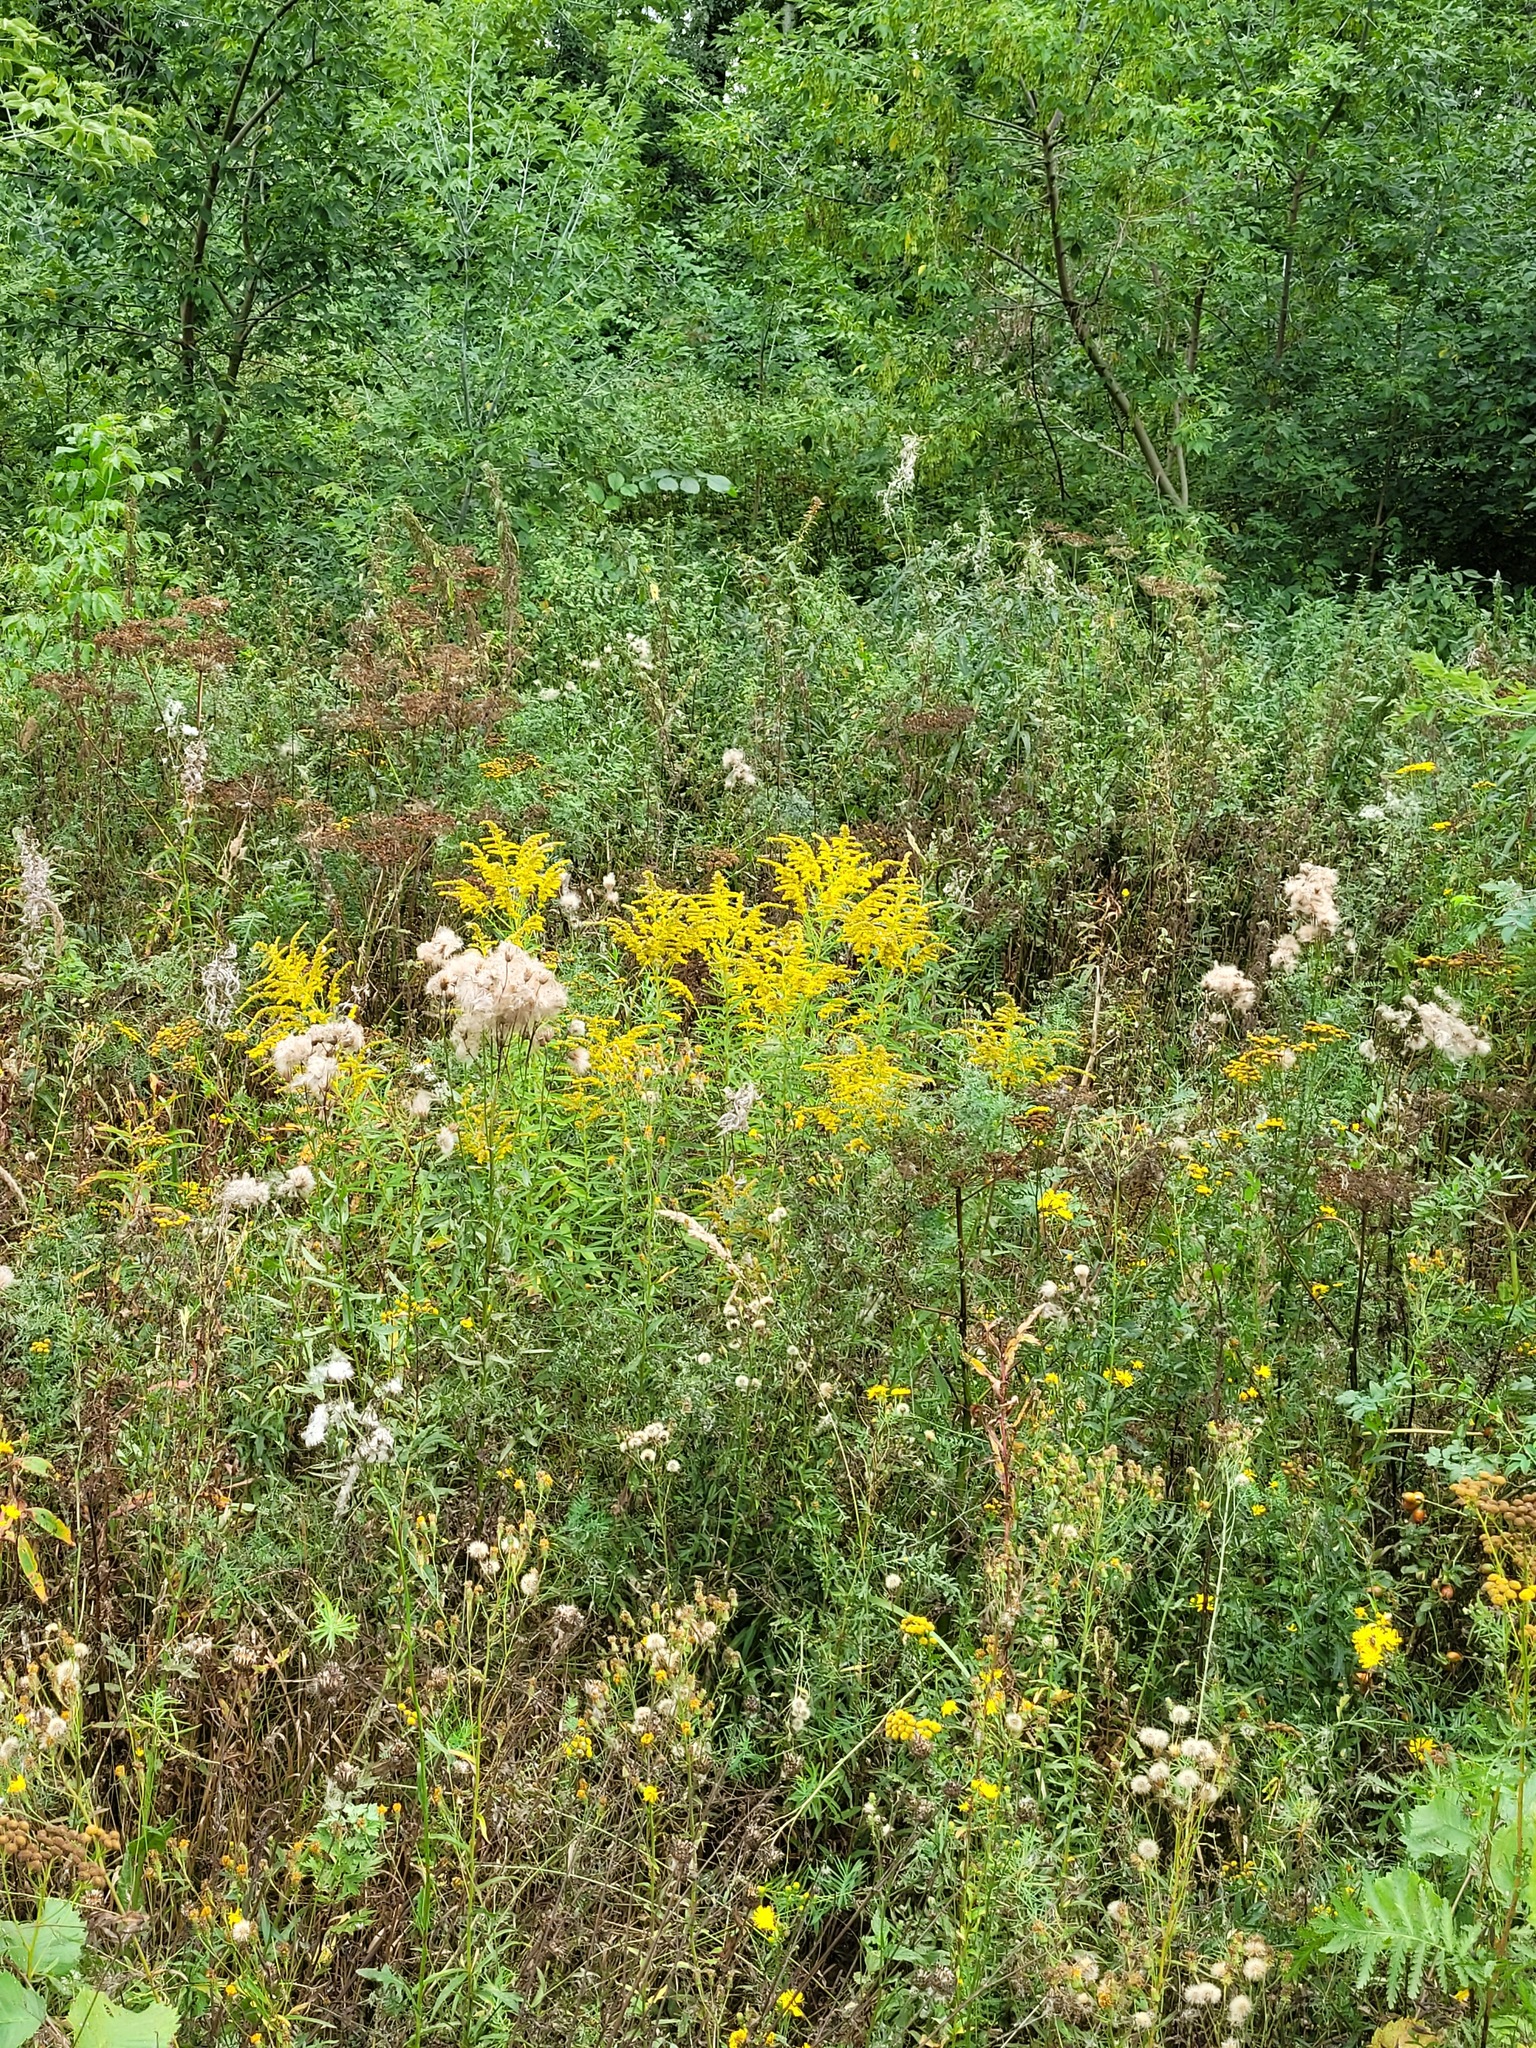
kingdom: Plantae
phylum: Tracheophyta
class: Magnoliopsida
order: Asterales
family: Asteraceae
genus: Solidago
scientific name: Solidago canadensis
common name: Canada goldenrod
